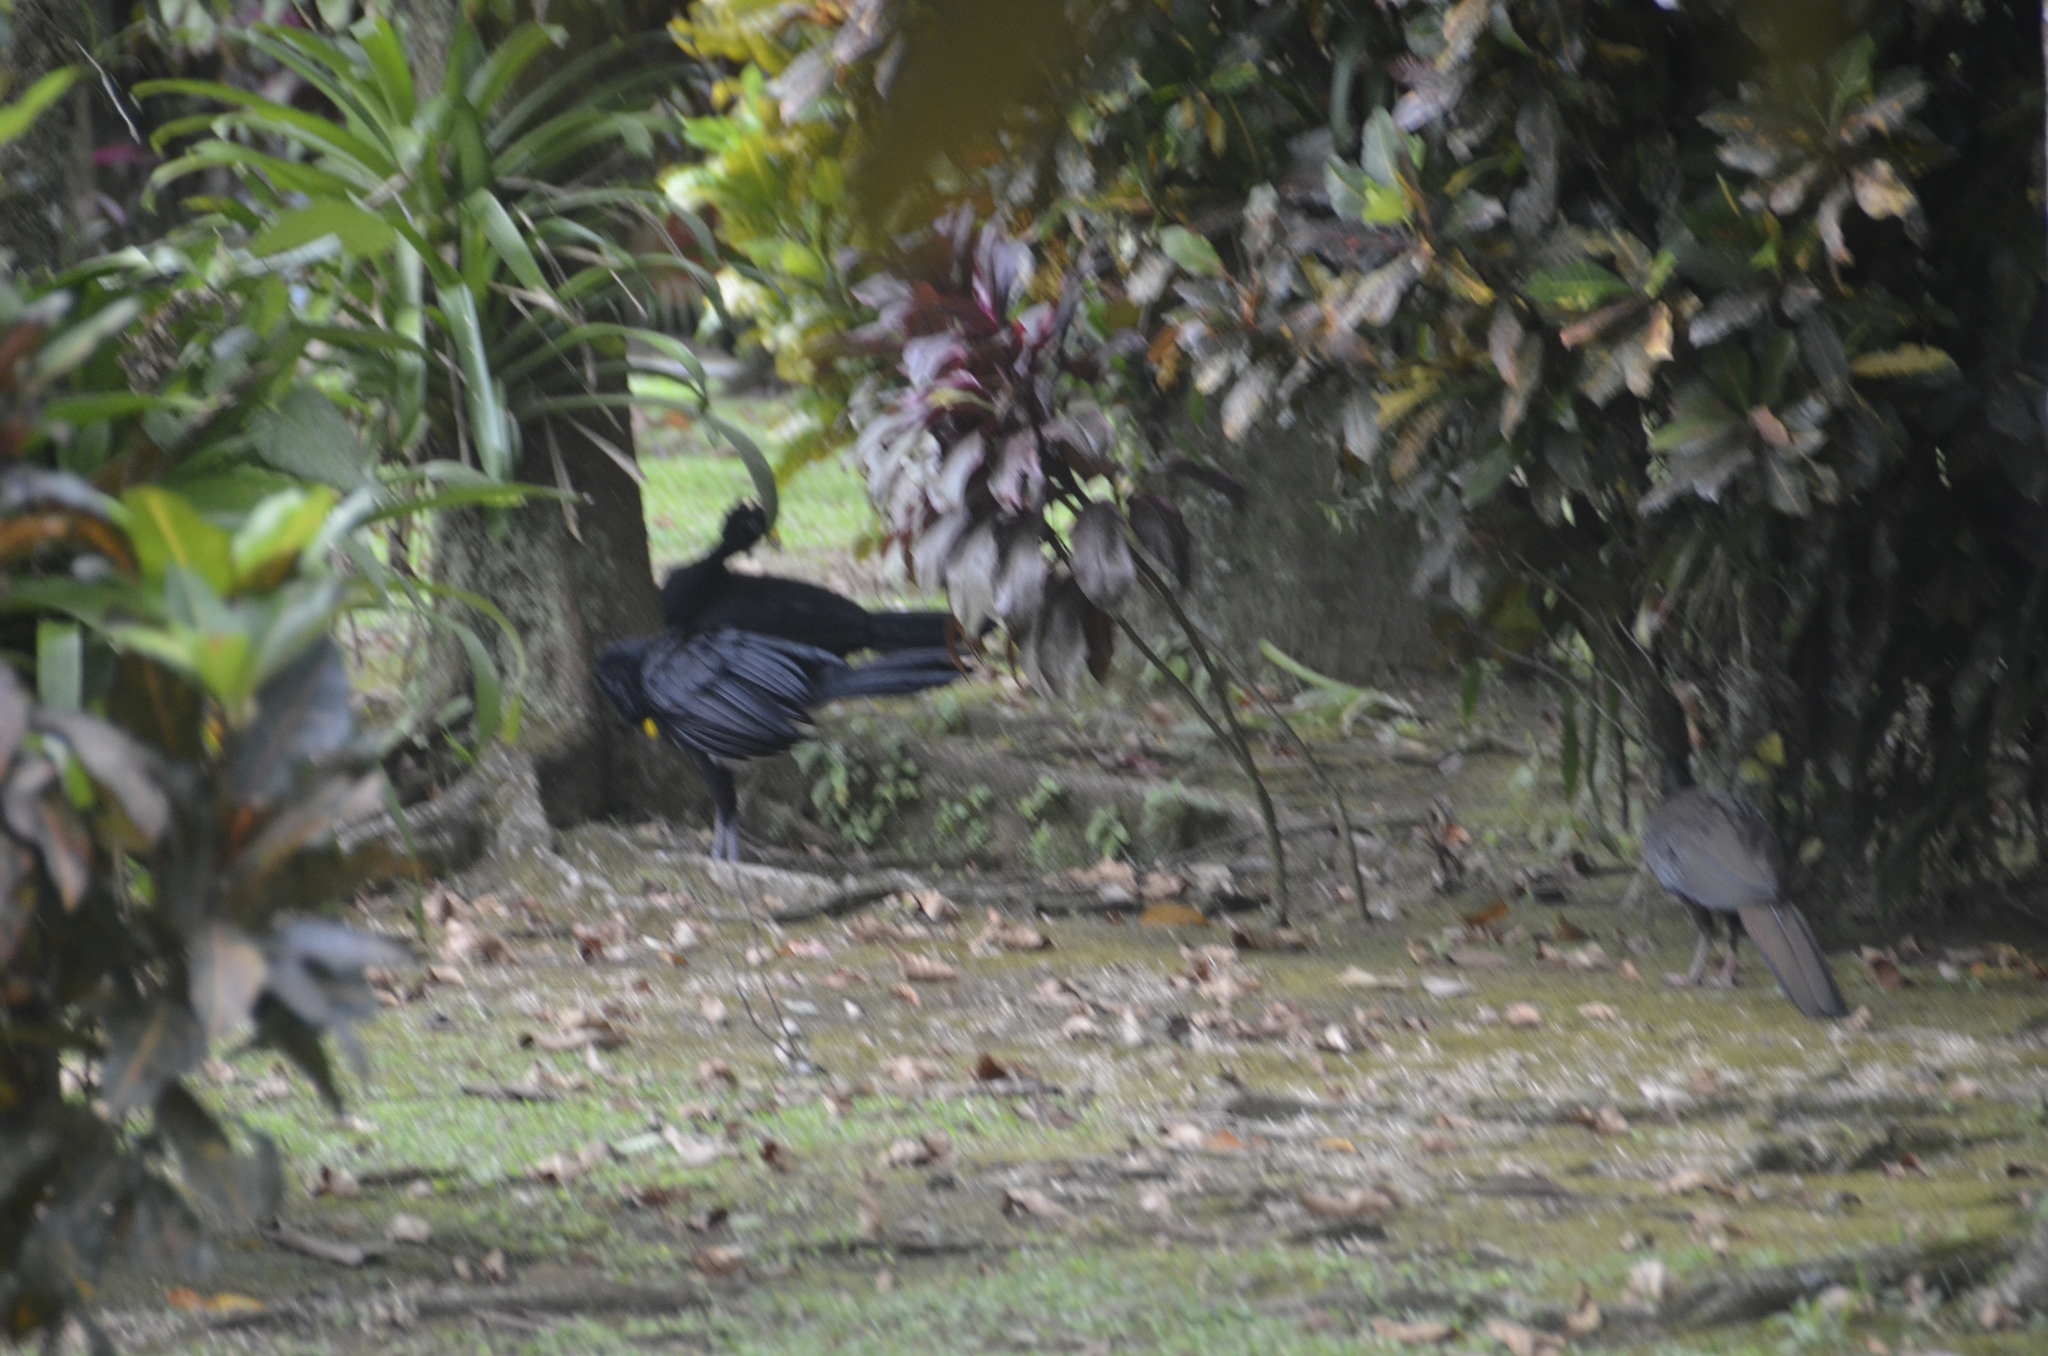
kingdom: Animalia
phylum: Chordata
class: Aves
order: Galliformes
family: Cracidae
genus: Crax
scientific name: Crax rubra
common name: Great curassow
